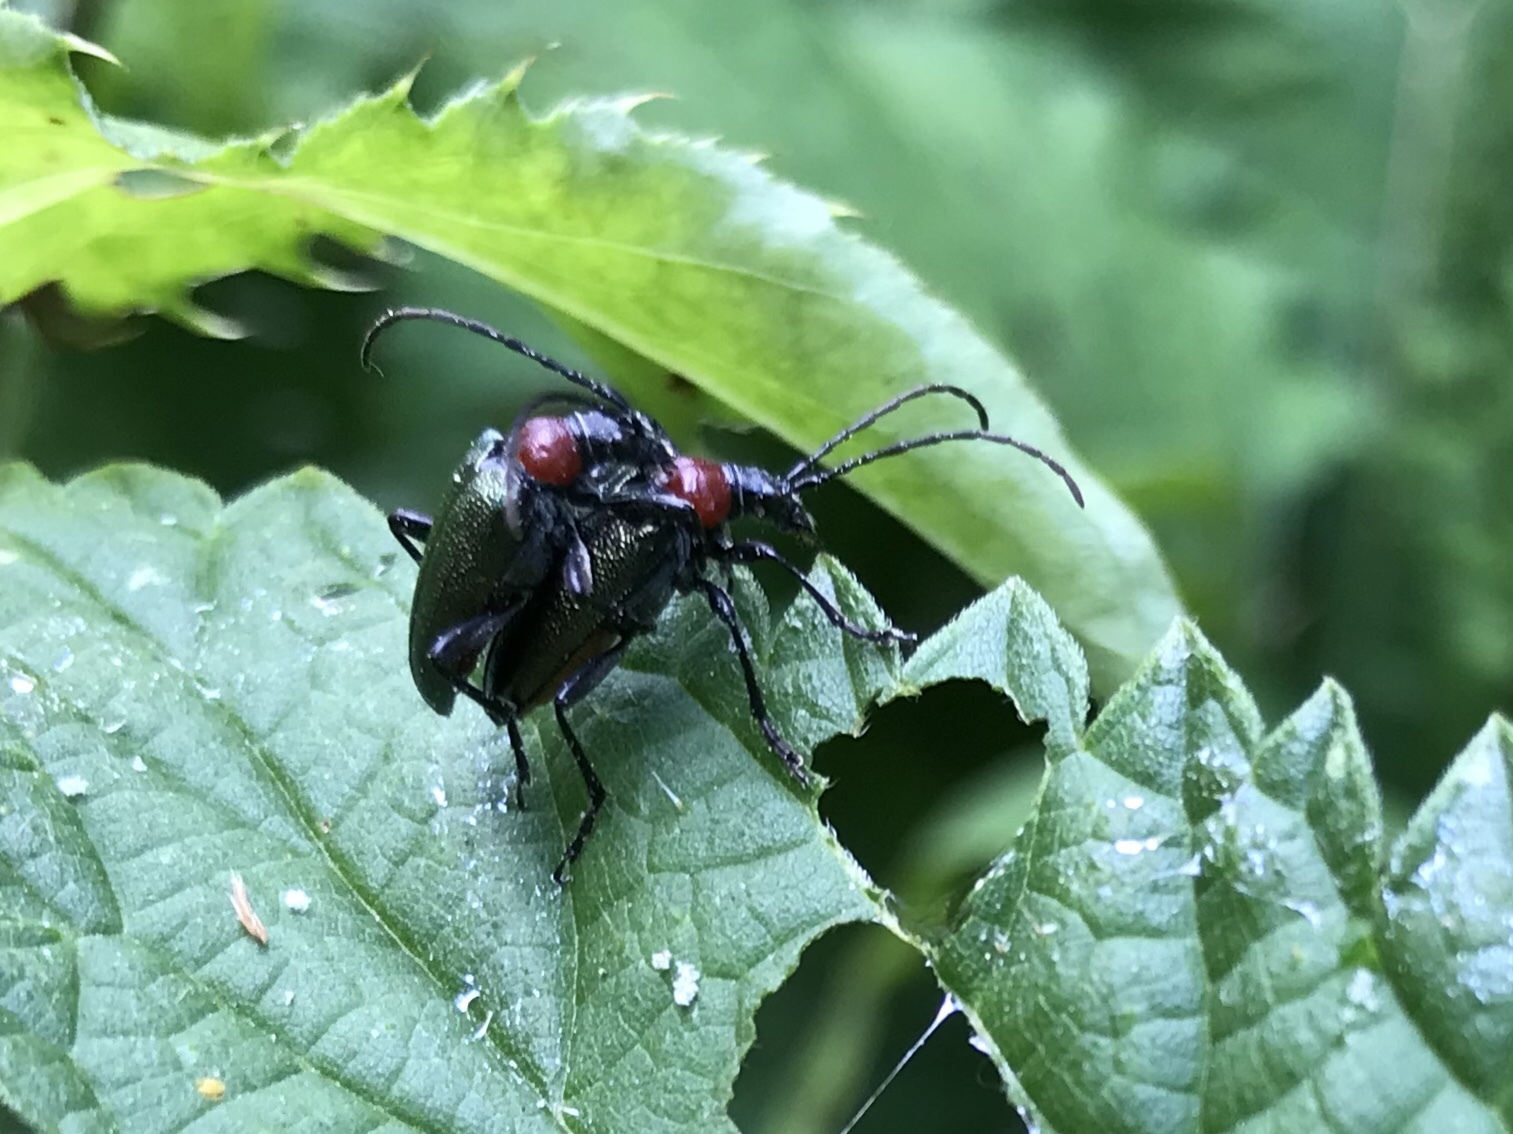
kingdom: Animalia
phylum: Arthropoda
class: Insecta
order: Coleoptera
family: Cerambycidae
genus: Gaurotes
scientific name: Gaurotes virginea
